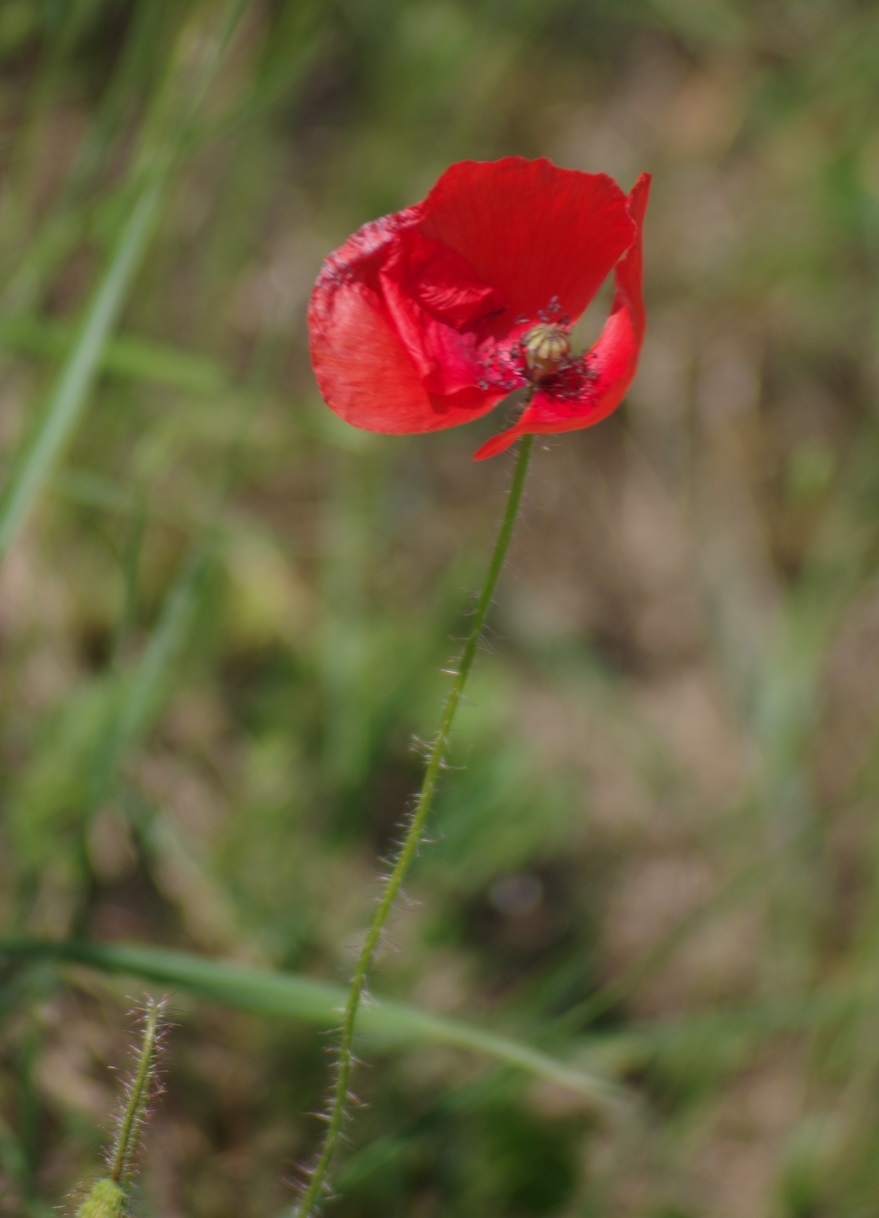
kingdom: Plantae
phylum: Tracheophyta
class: Magnoliopsida
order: Ranunculales
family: Papaveraceae
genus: Papaver
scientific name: Papaver rhoeas
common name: Corn poppy
